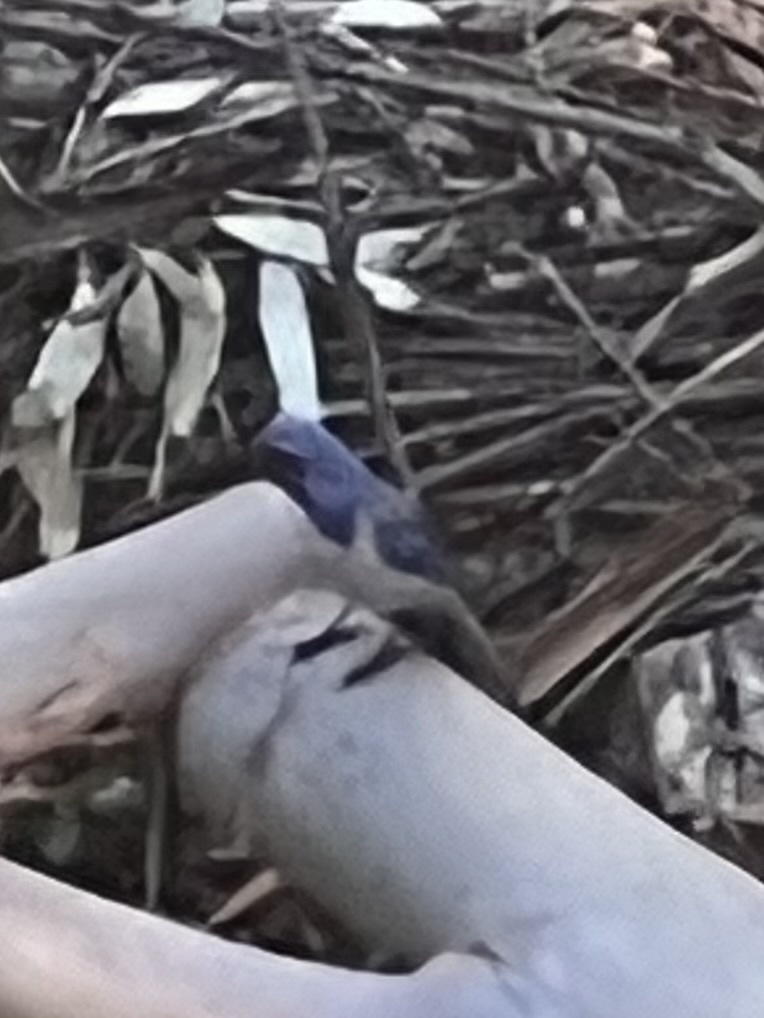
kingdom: Animalia
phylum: Chordata
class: Aves
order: Passeriformes
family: Corvidae
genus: Aphelocoma
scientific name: Aphelocoma californica
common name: California scrub-jay
